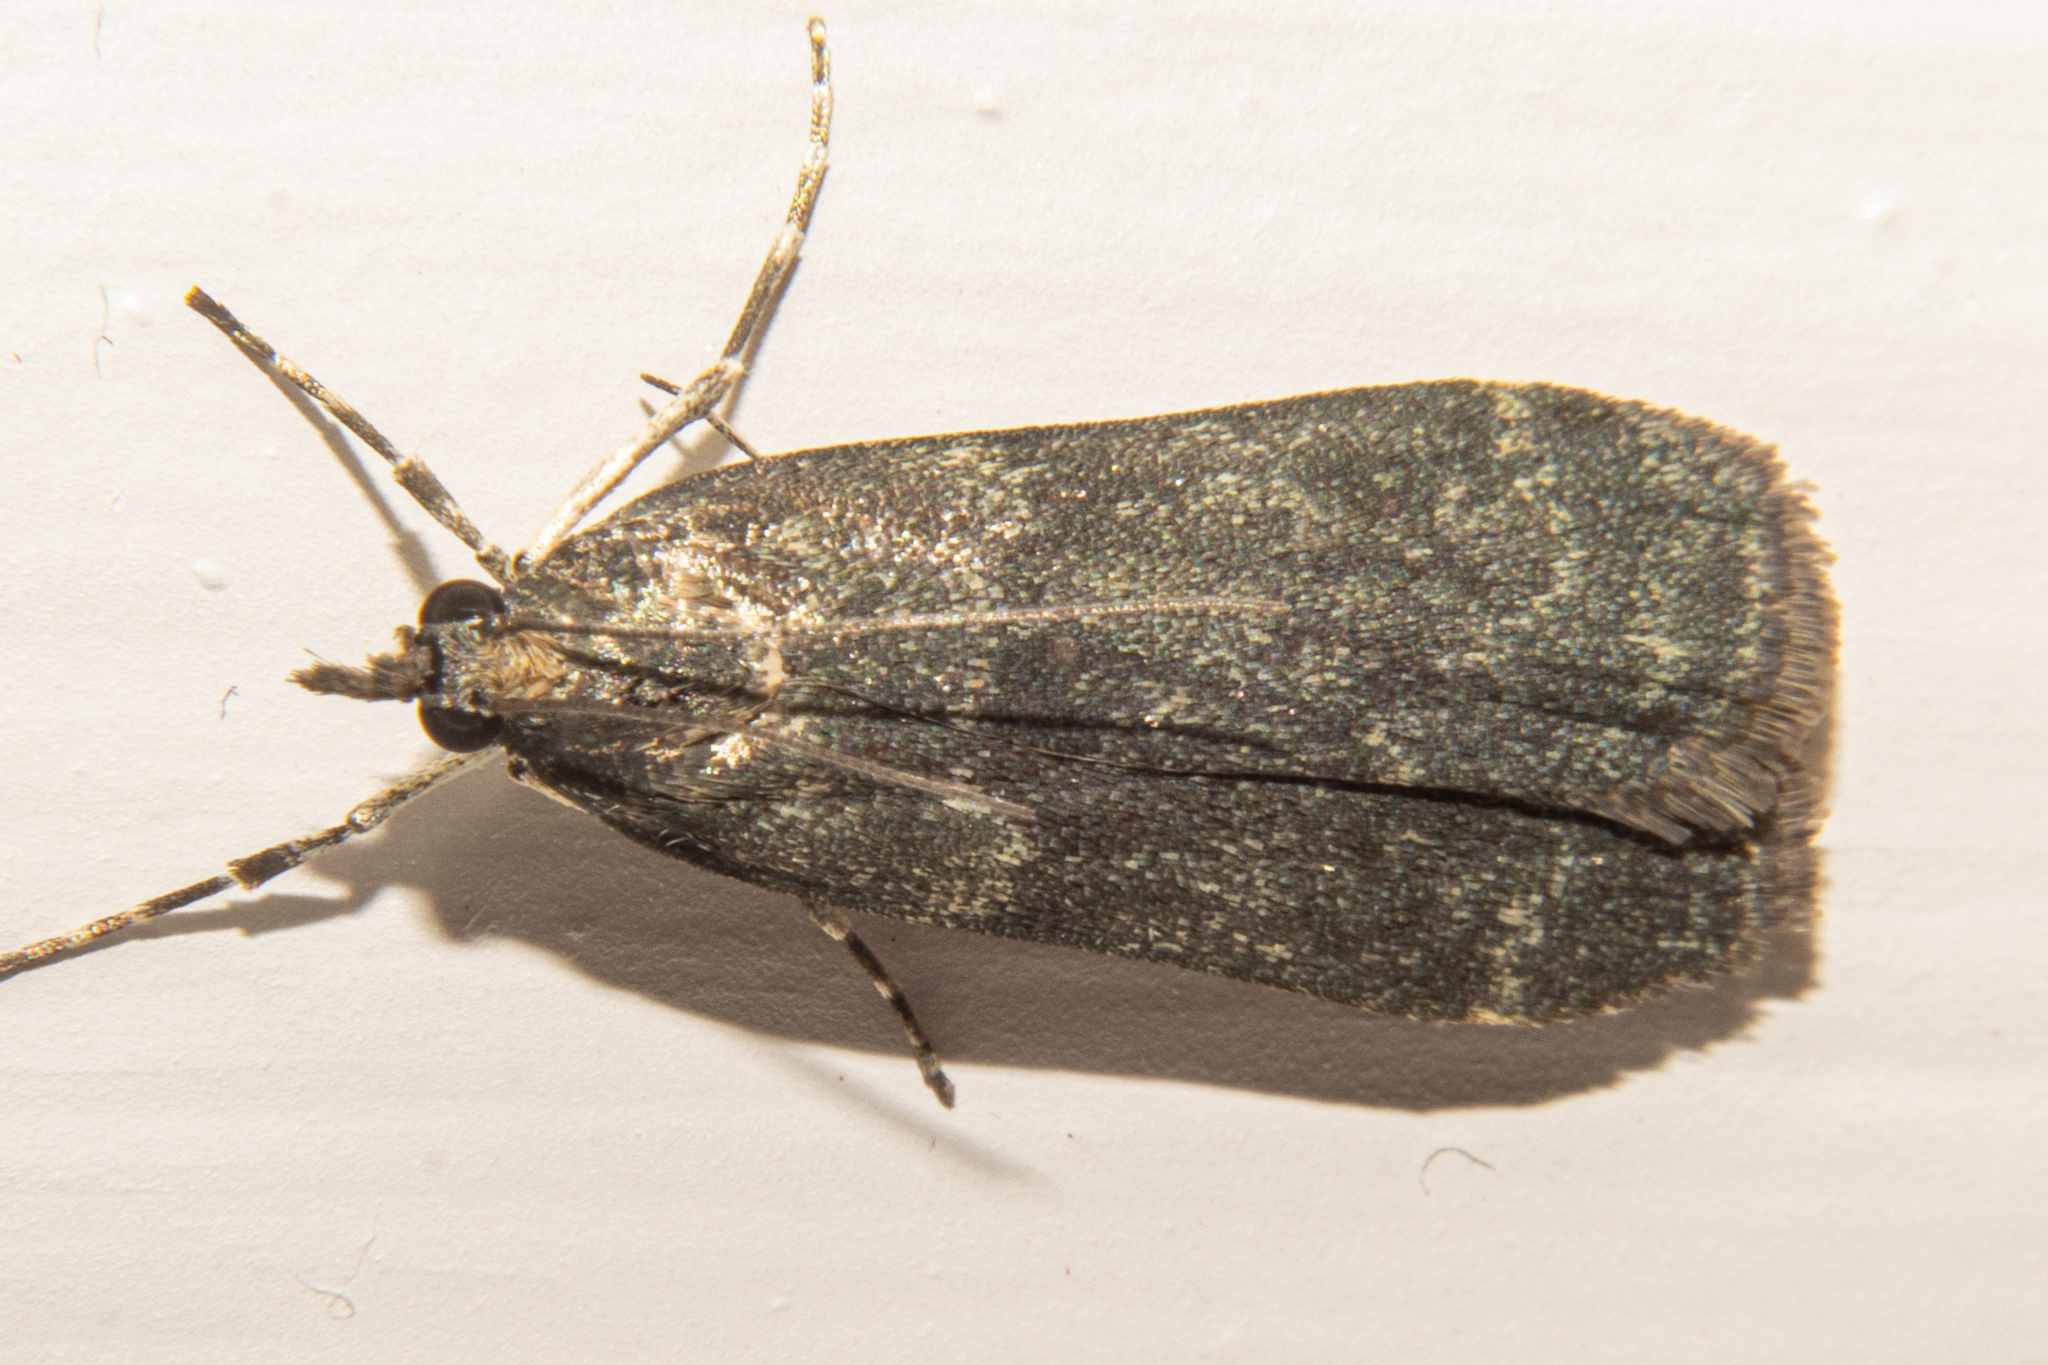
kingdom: Animalia
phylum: Arthropoda
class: Insecta
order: Lepidoptera
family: Crambidae
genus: Eudonia
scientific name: Eudonia cataxesta
